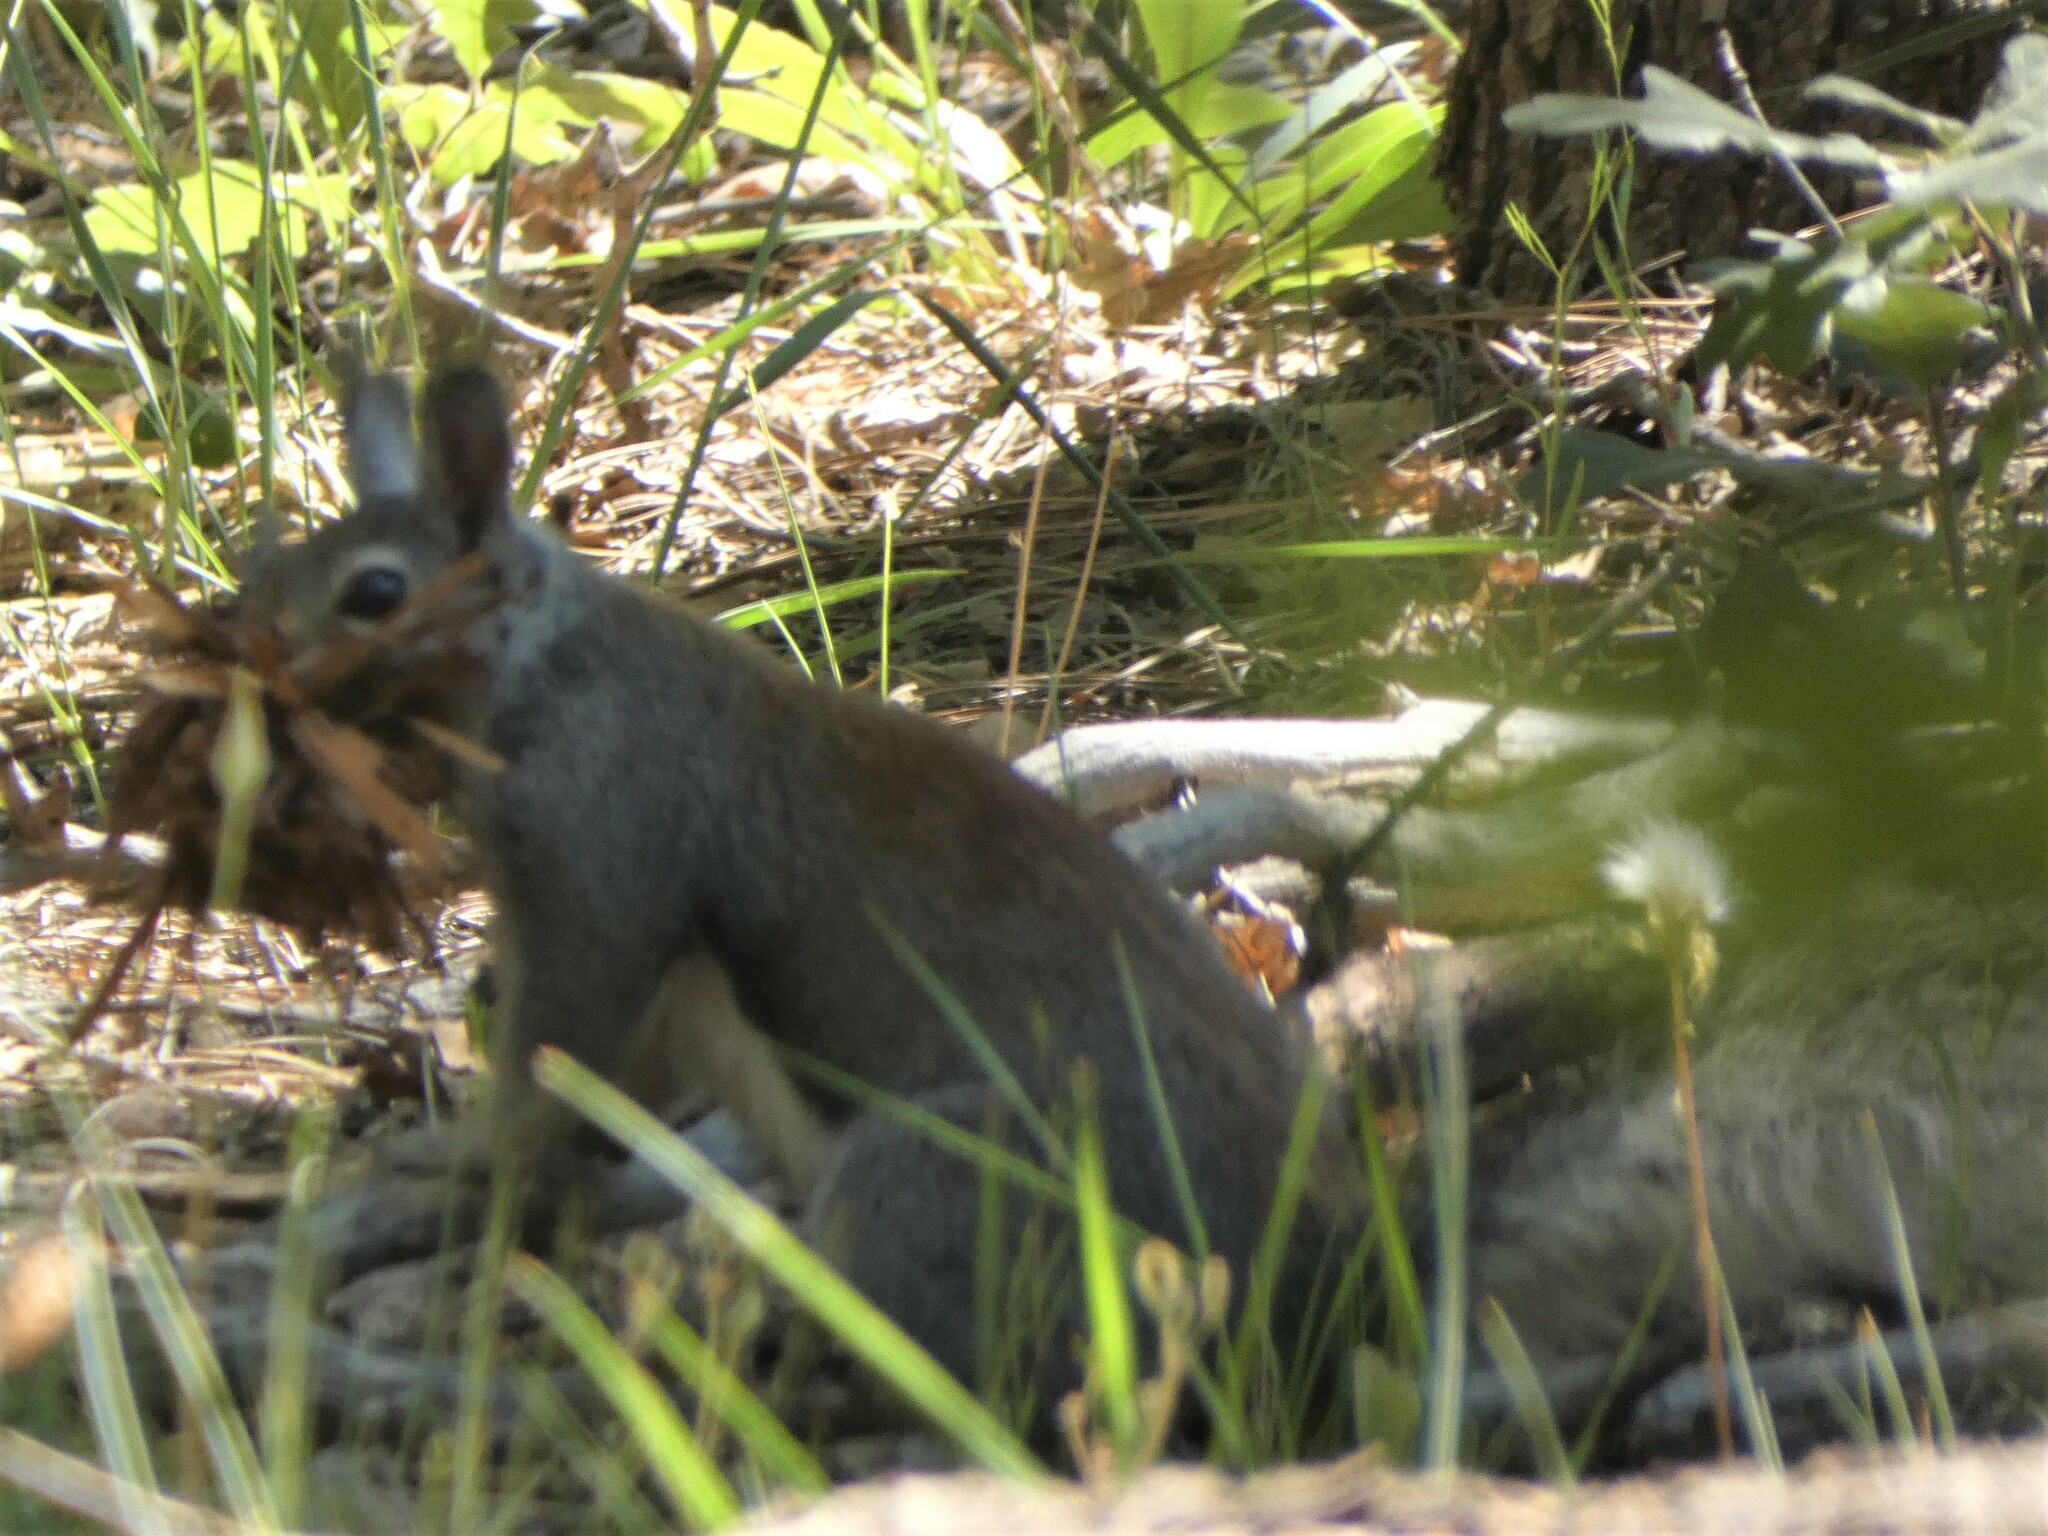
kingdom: Animalia
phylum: Chordata
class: Mammalia
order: Rodentia
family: Sciuridae
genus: Sciurus
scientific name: Sciurus aberti
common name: Abert's squirrel
